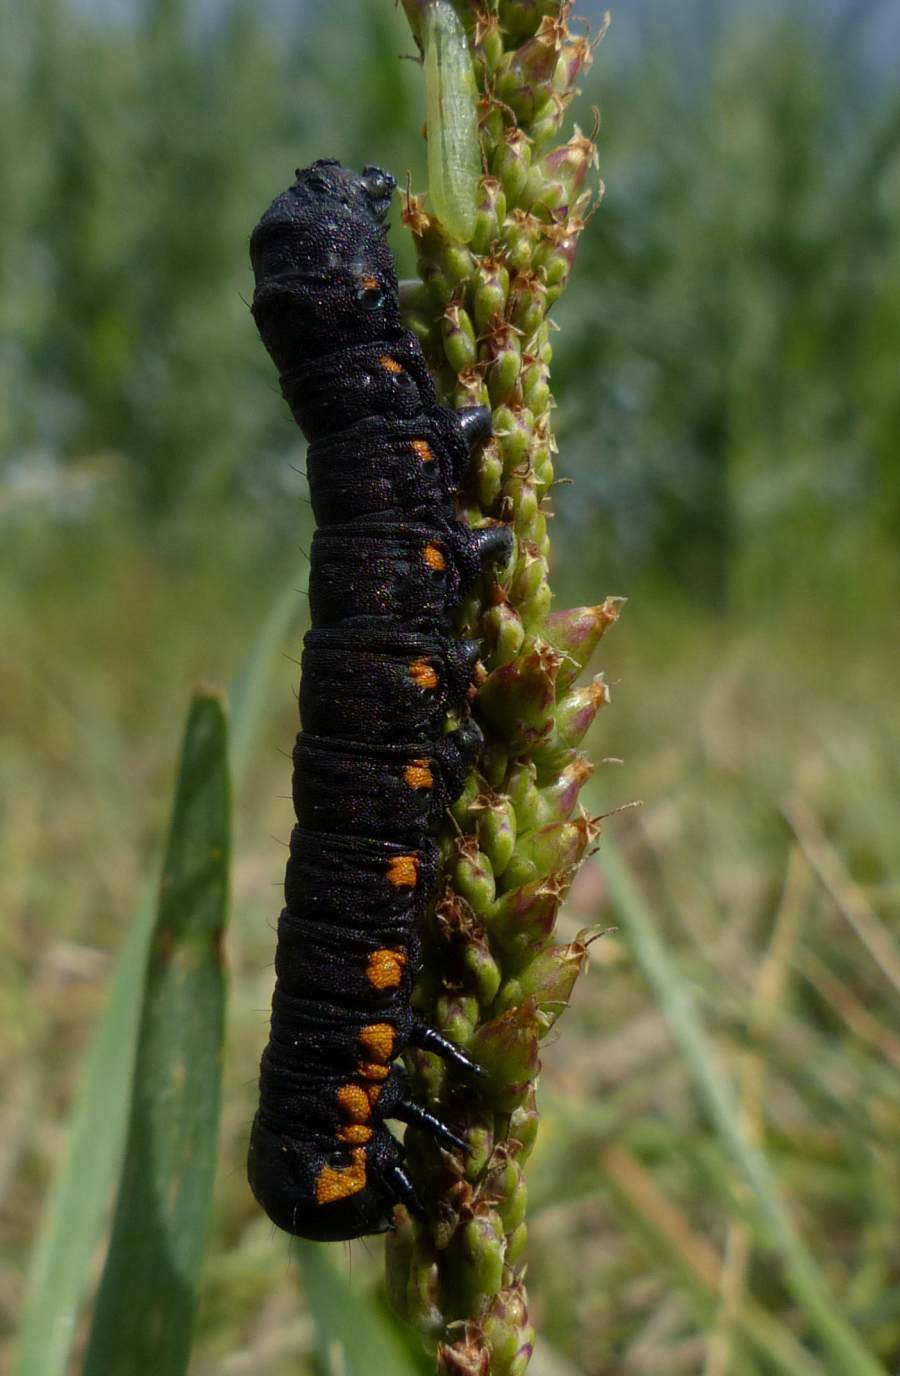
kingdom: Animalia
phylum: Arthropoda
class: Insecta
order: Lepidoptera
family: Noctuidae
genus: Cucullia
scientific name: Cucullia intermedia
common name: Goldenrod cutworm
